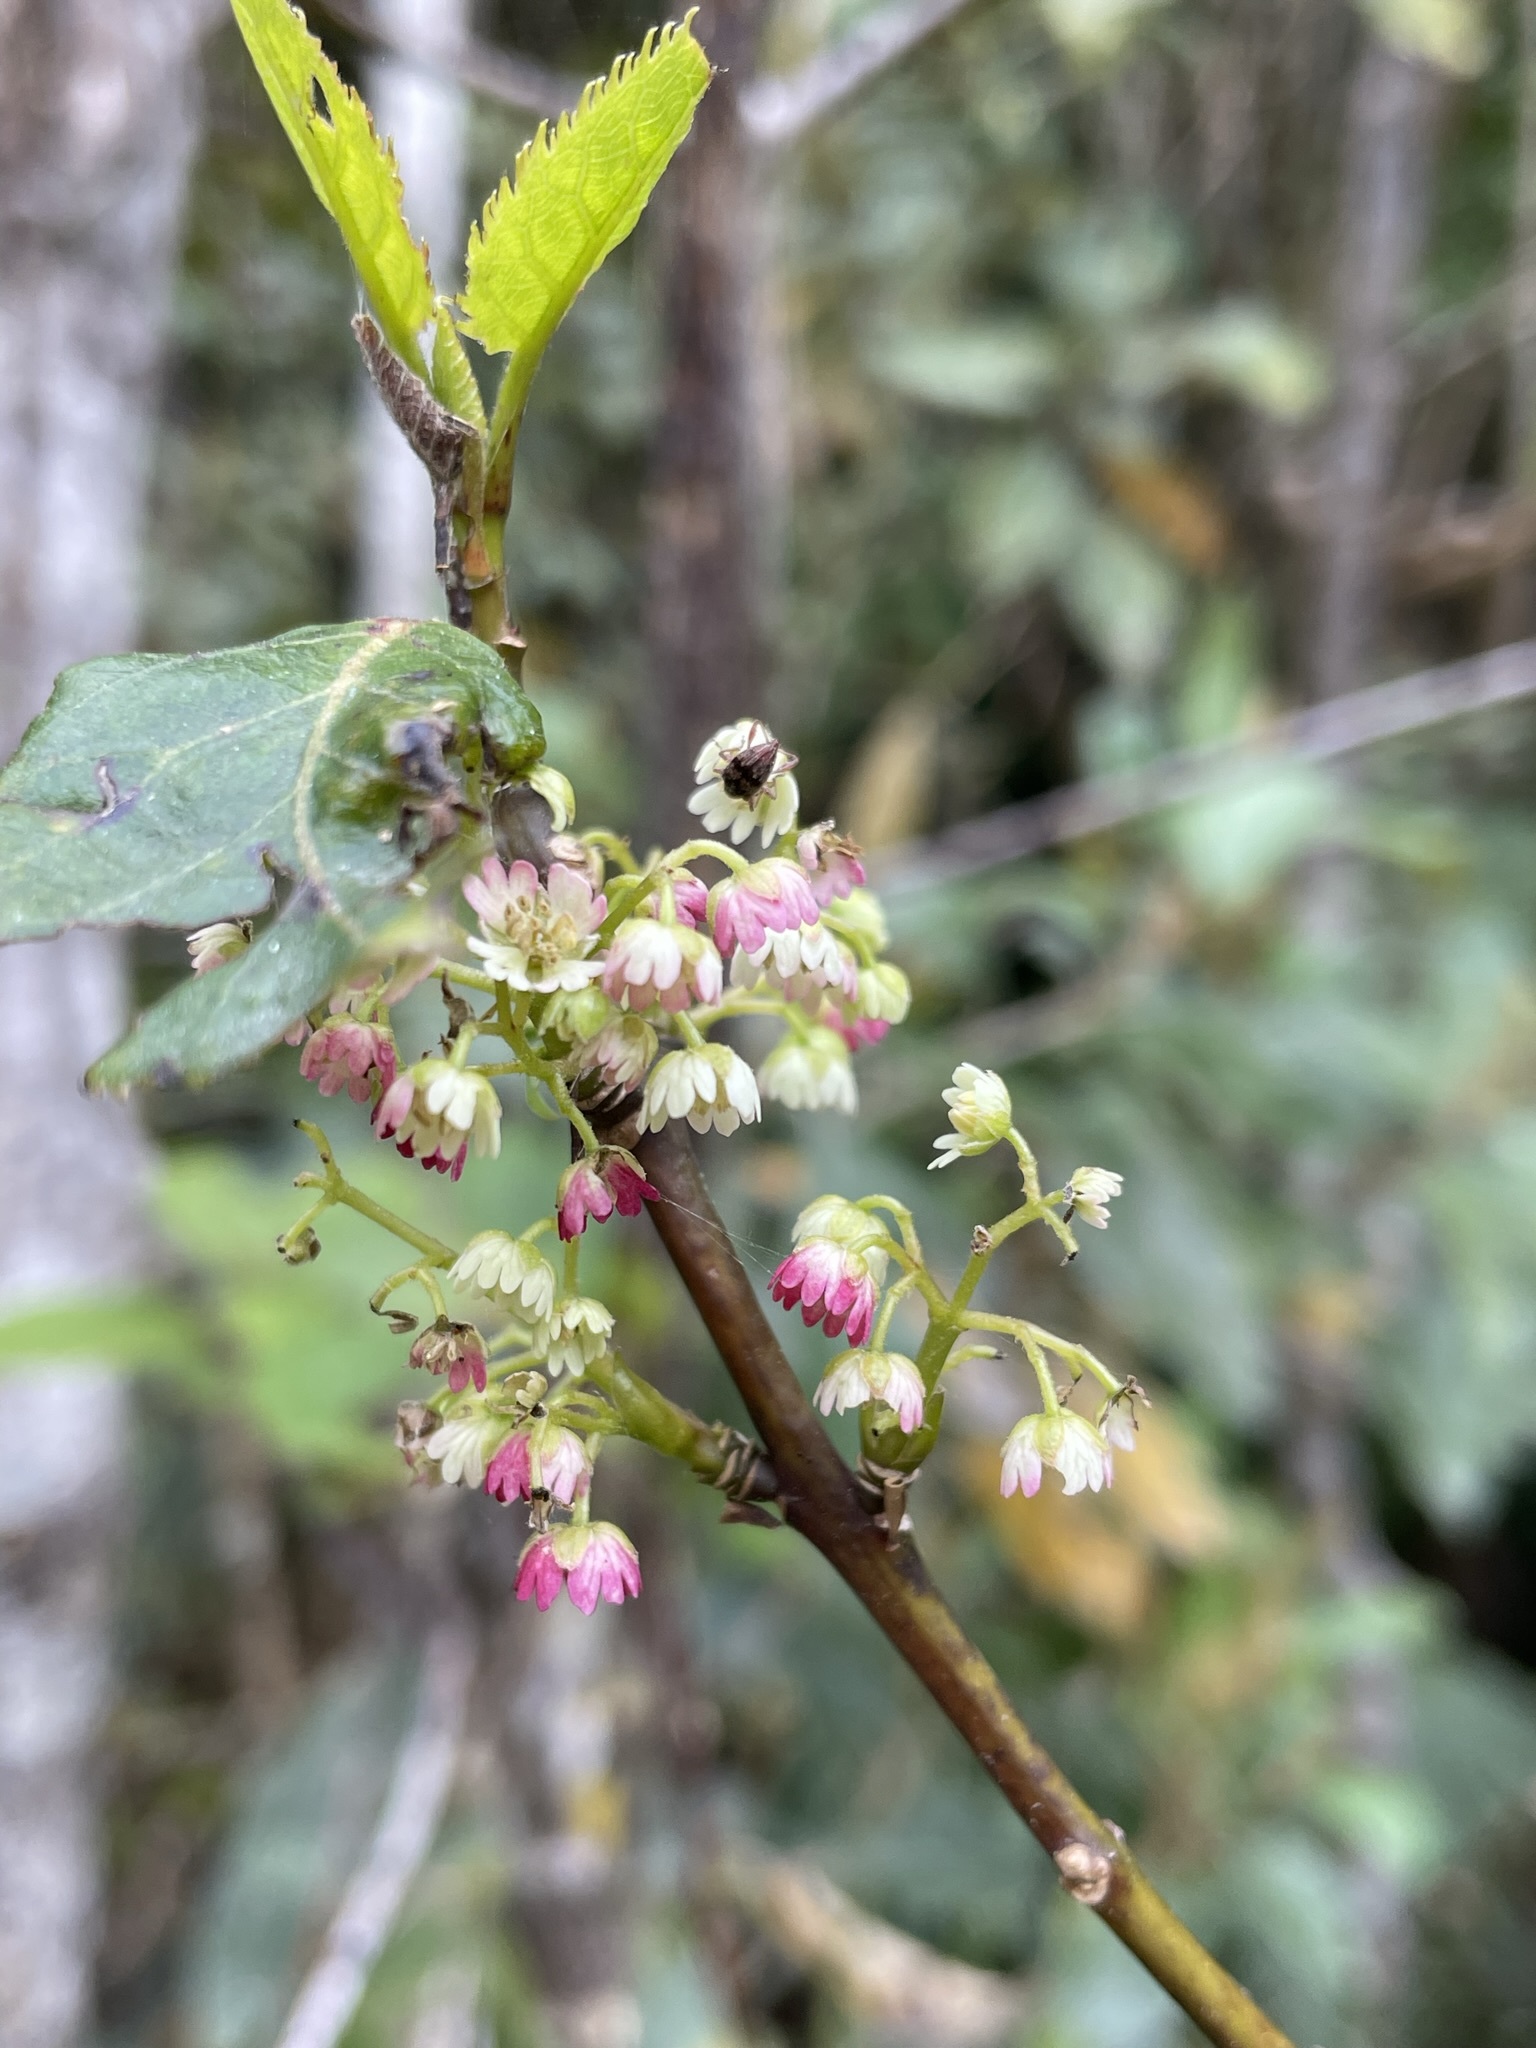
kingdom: Plantae
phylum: Tracheophyta
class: Magnoliopsida
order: Oxalidales
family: Elaeocarpaceae
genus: Aristotelia
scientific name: Aristotelia serrata
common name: New zealand wineberry
